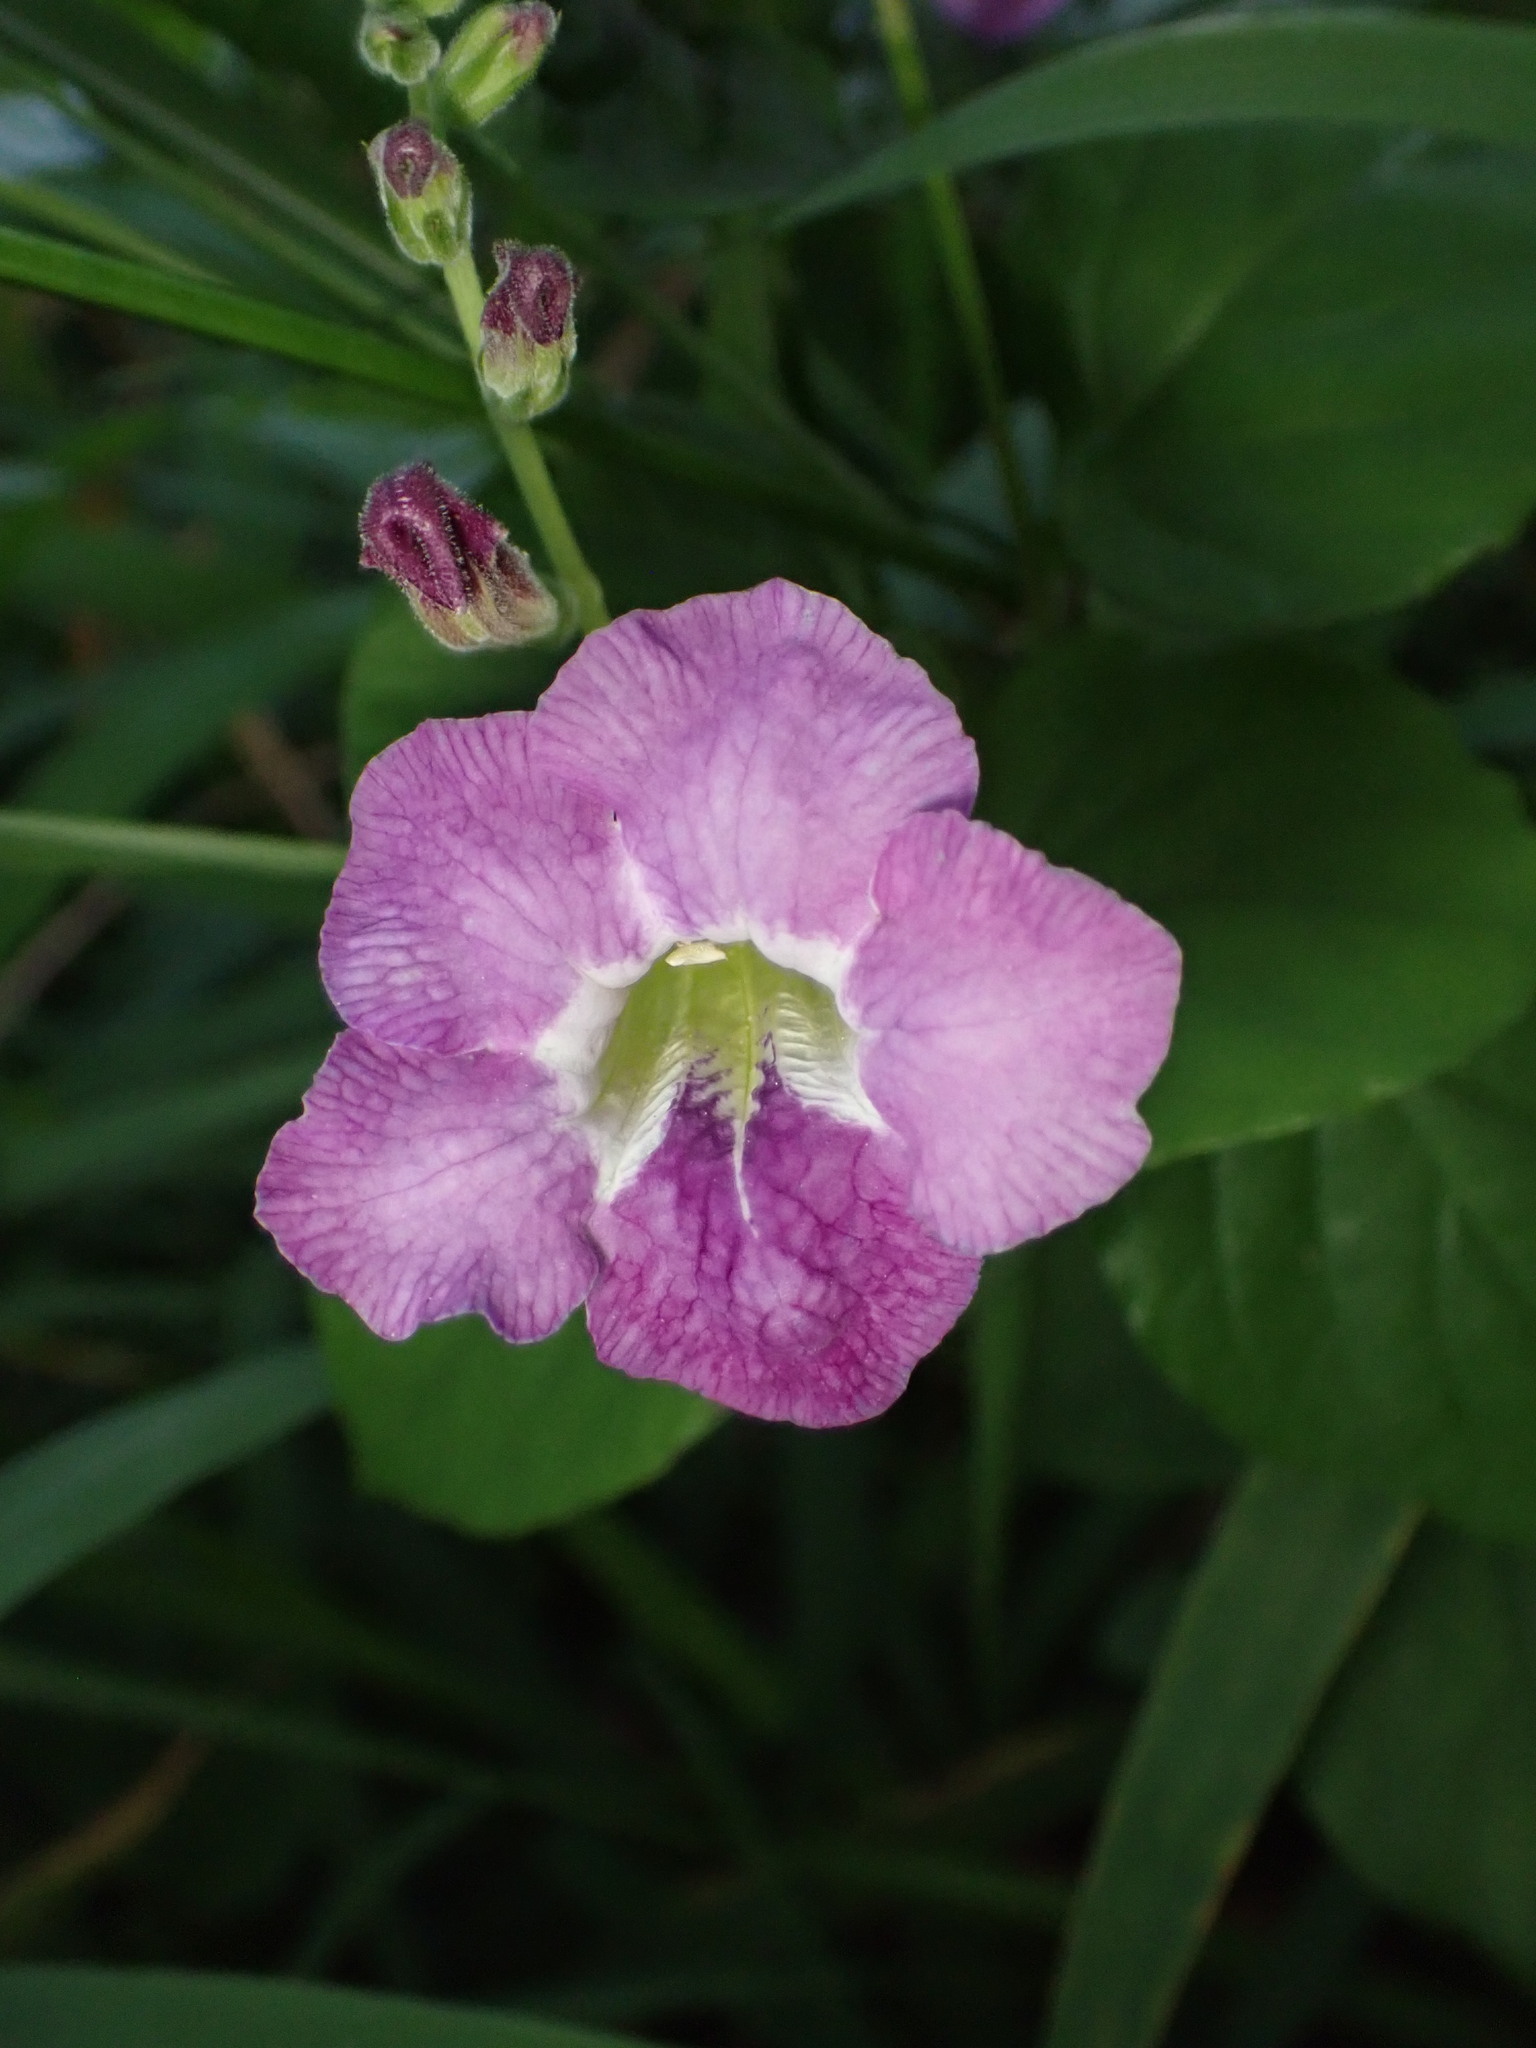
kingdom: Plantae
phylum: Tracheophyta
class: Magnoliopsida
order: Lamiales
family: Acanthaceae
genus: Asystasia
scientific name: Asystasia gangetica
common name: Chinese violet
